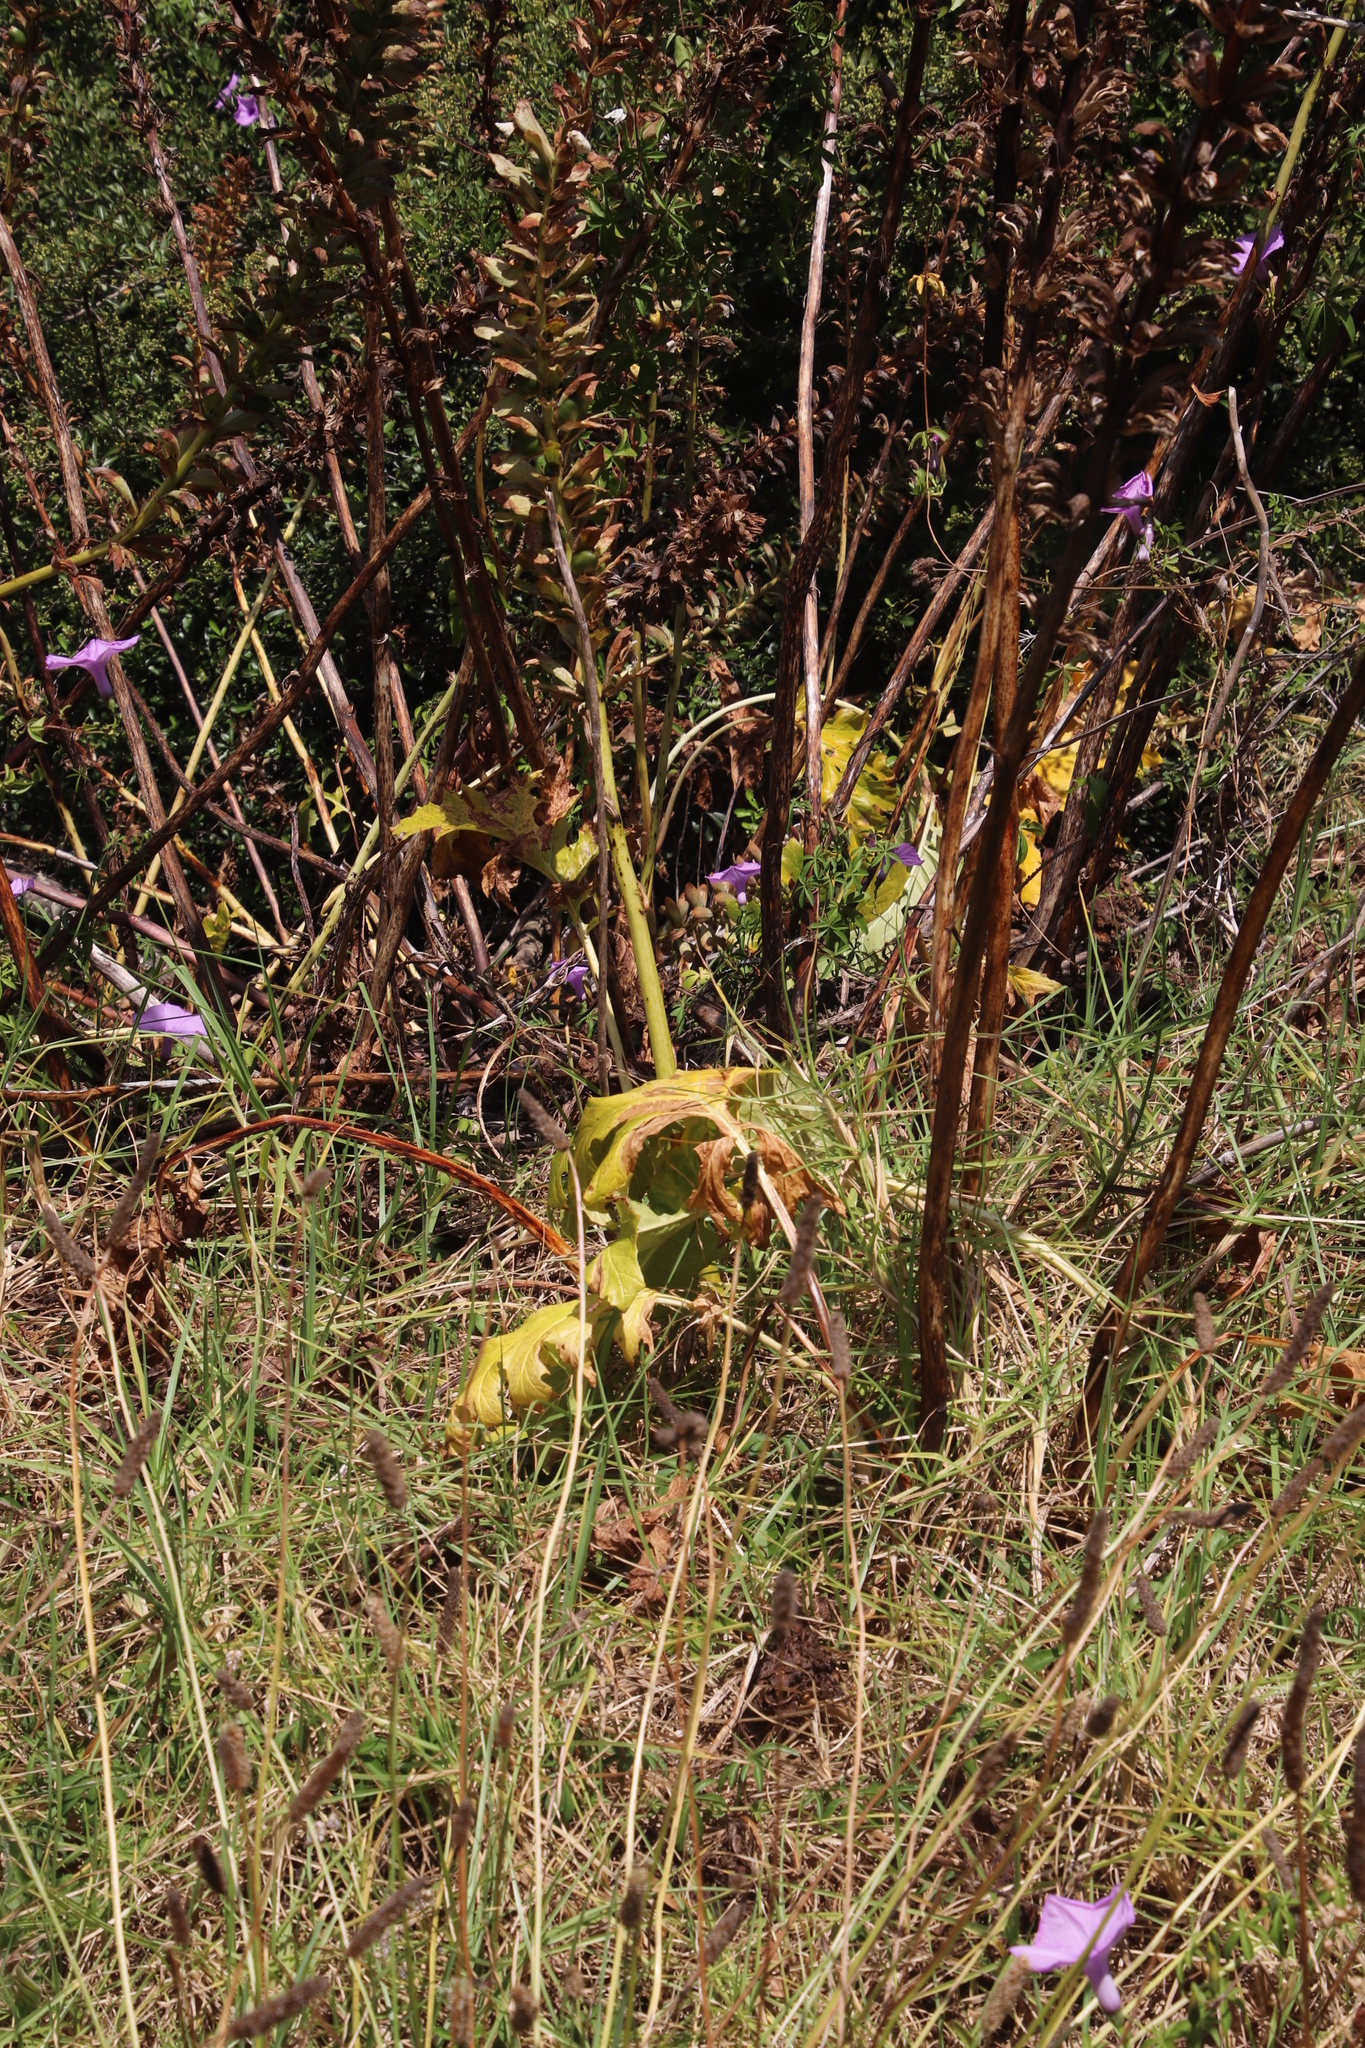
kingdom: Plantae
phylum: Tracheophyta
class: Magnoliopsida
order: Lamiales
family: Acanthaceae
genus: Acanthus
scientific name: Acanthus mollis
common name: Bear's-breech
